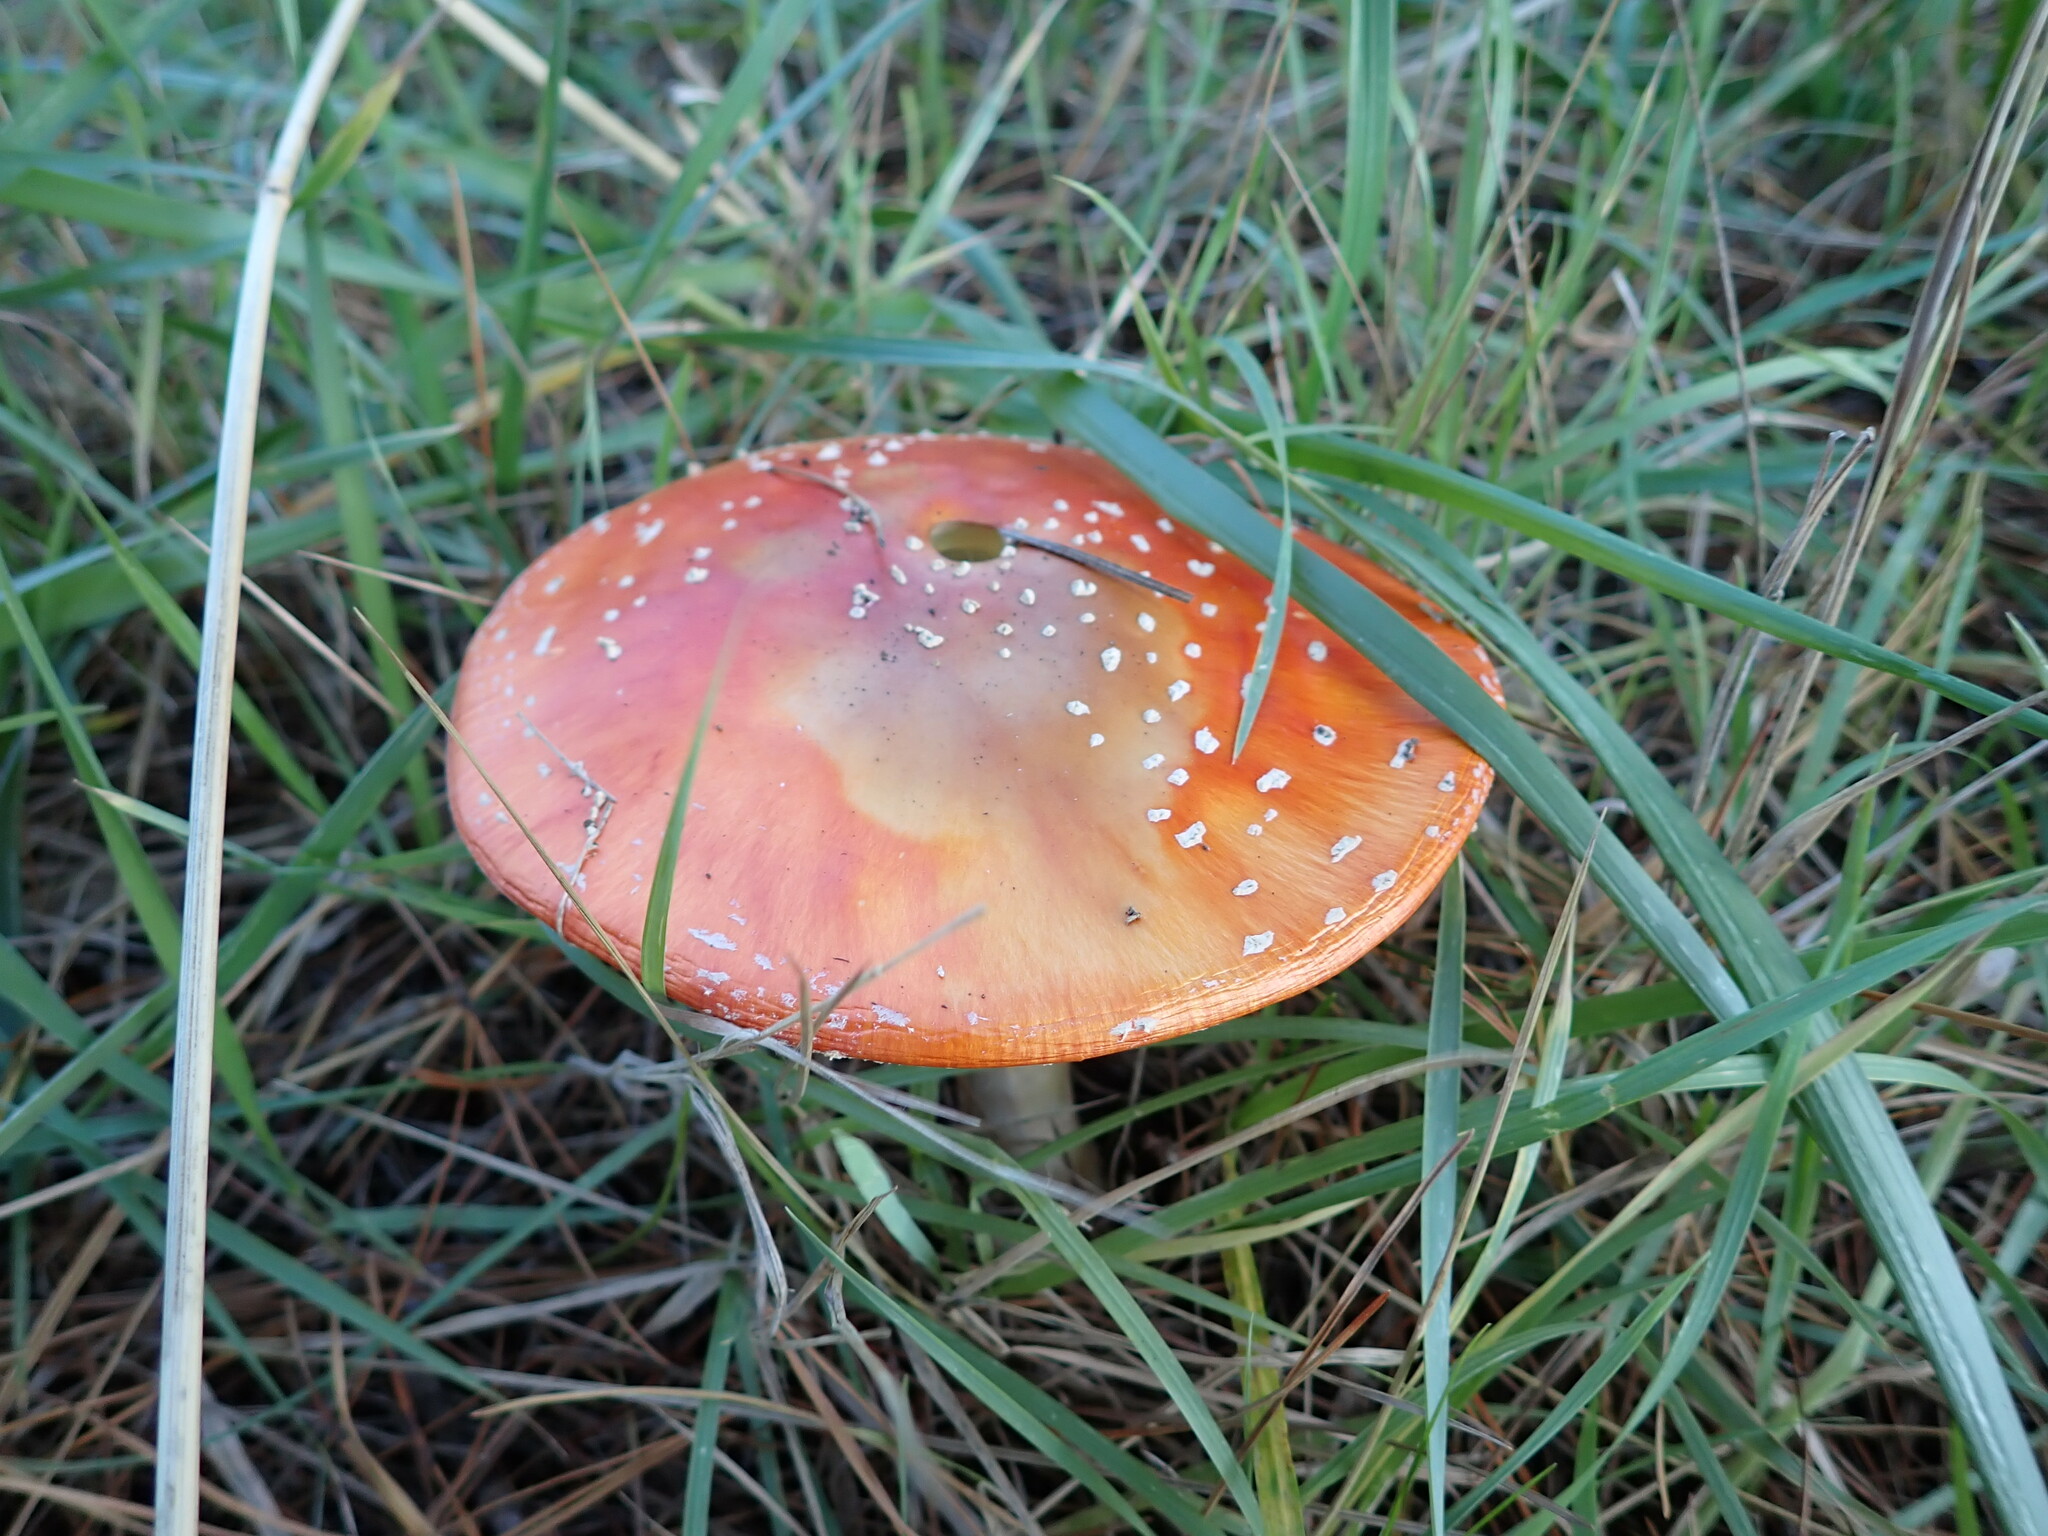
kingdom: Fungi
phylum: Basidiomycota
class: Agaricomycetes
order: Agaricales
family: Amanitaceae
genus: Amanita
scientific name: Amanita muscaria
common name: Fly agaric
